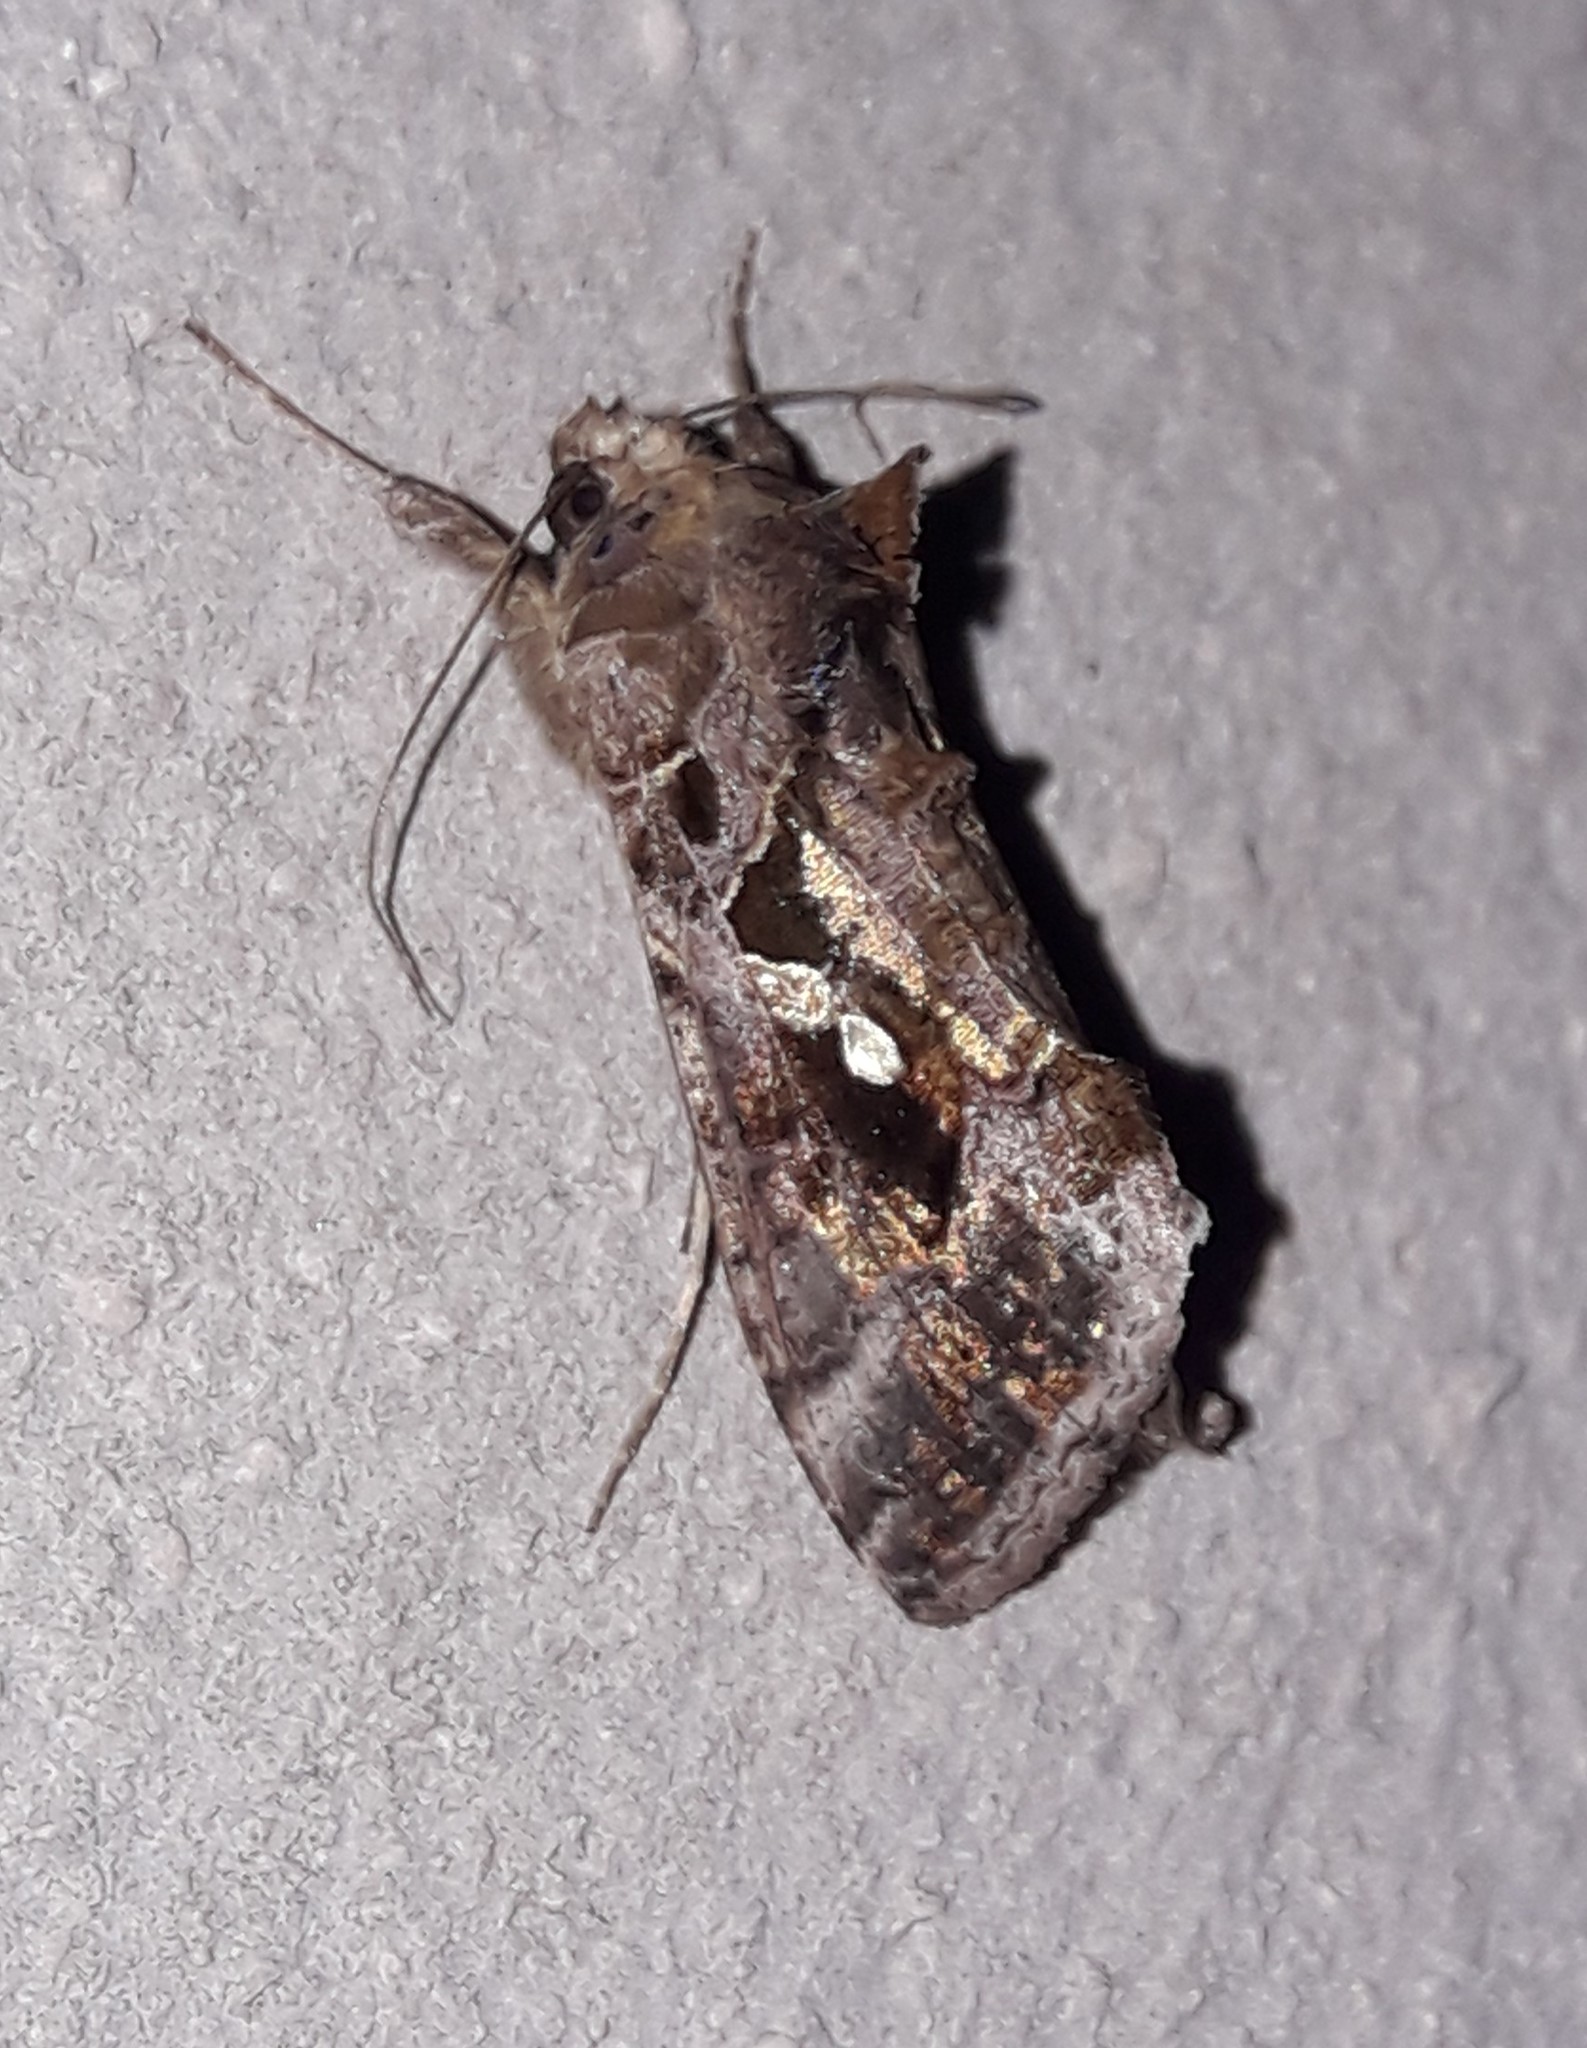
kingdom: Animalia
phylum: Arthropoda
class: Insecta
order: Lepidoptera
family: Noctuidae
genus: Chrysodeixis
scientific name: Chrysodeixis includens
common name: Cutworm moth
